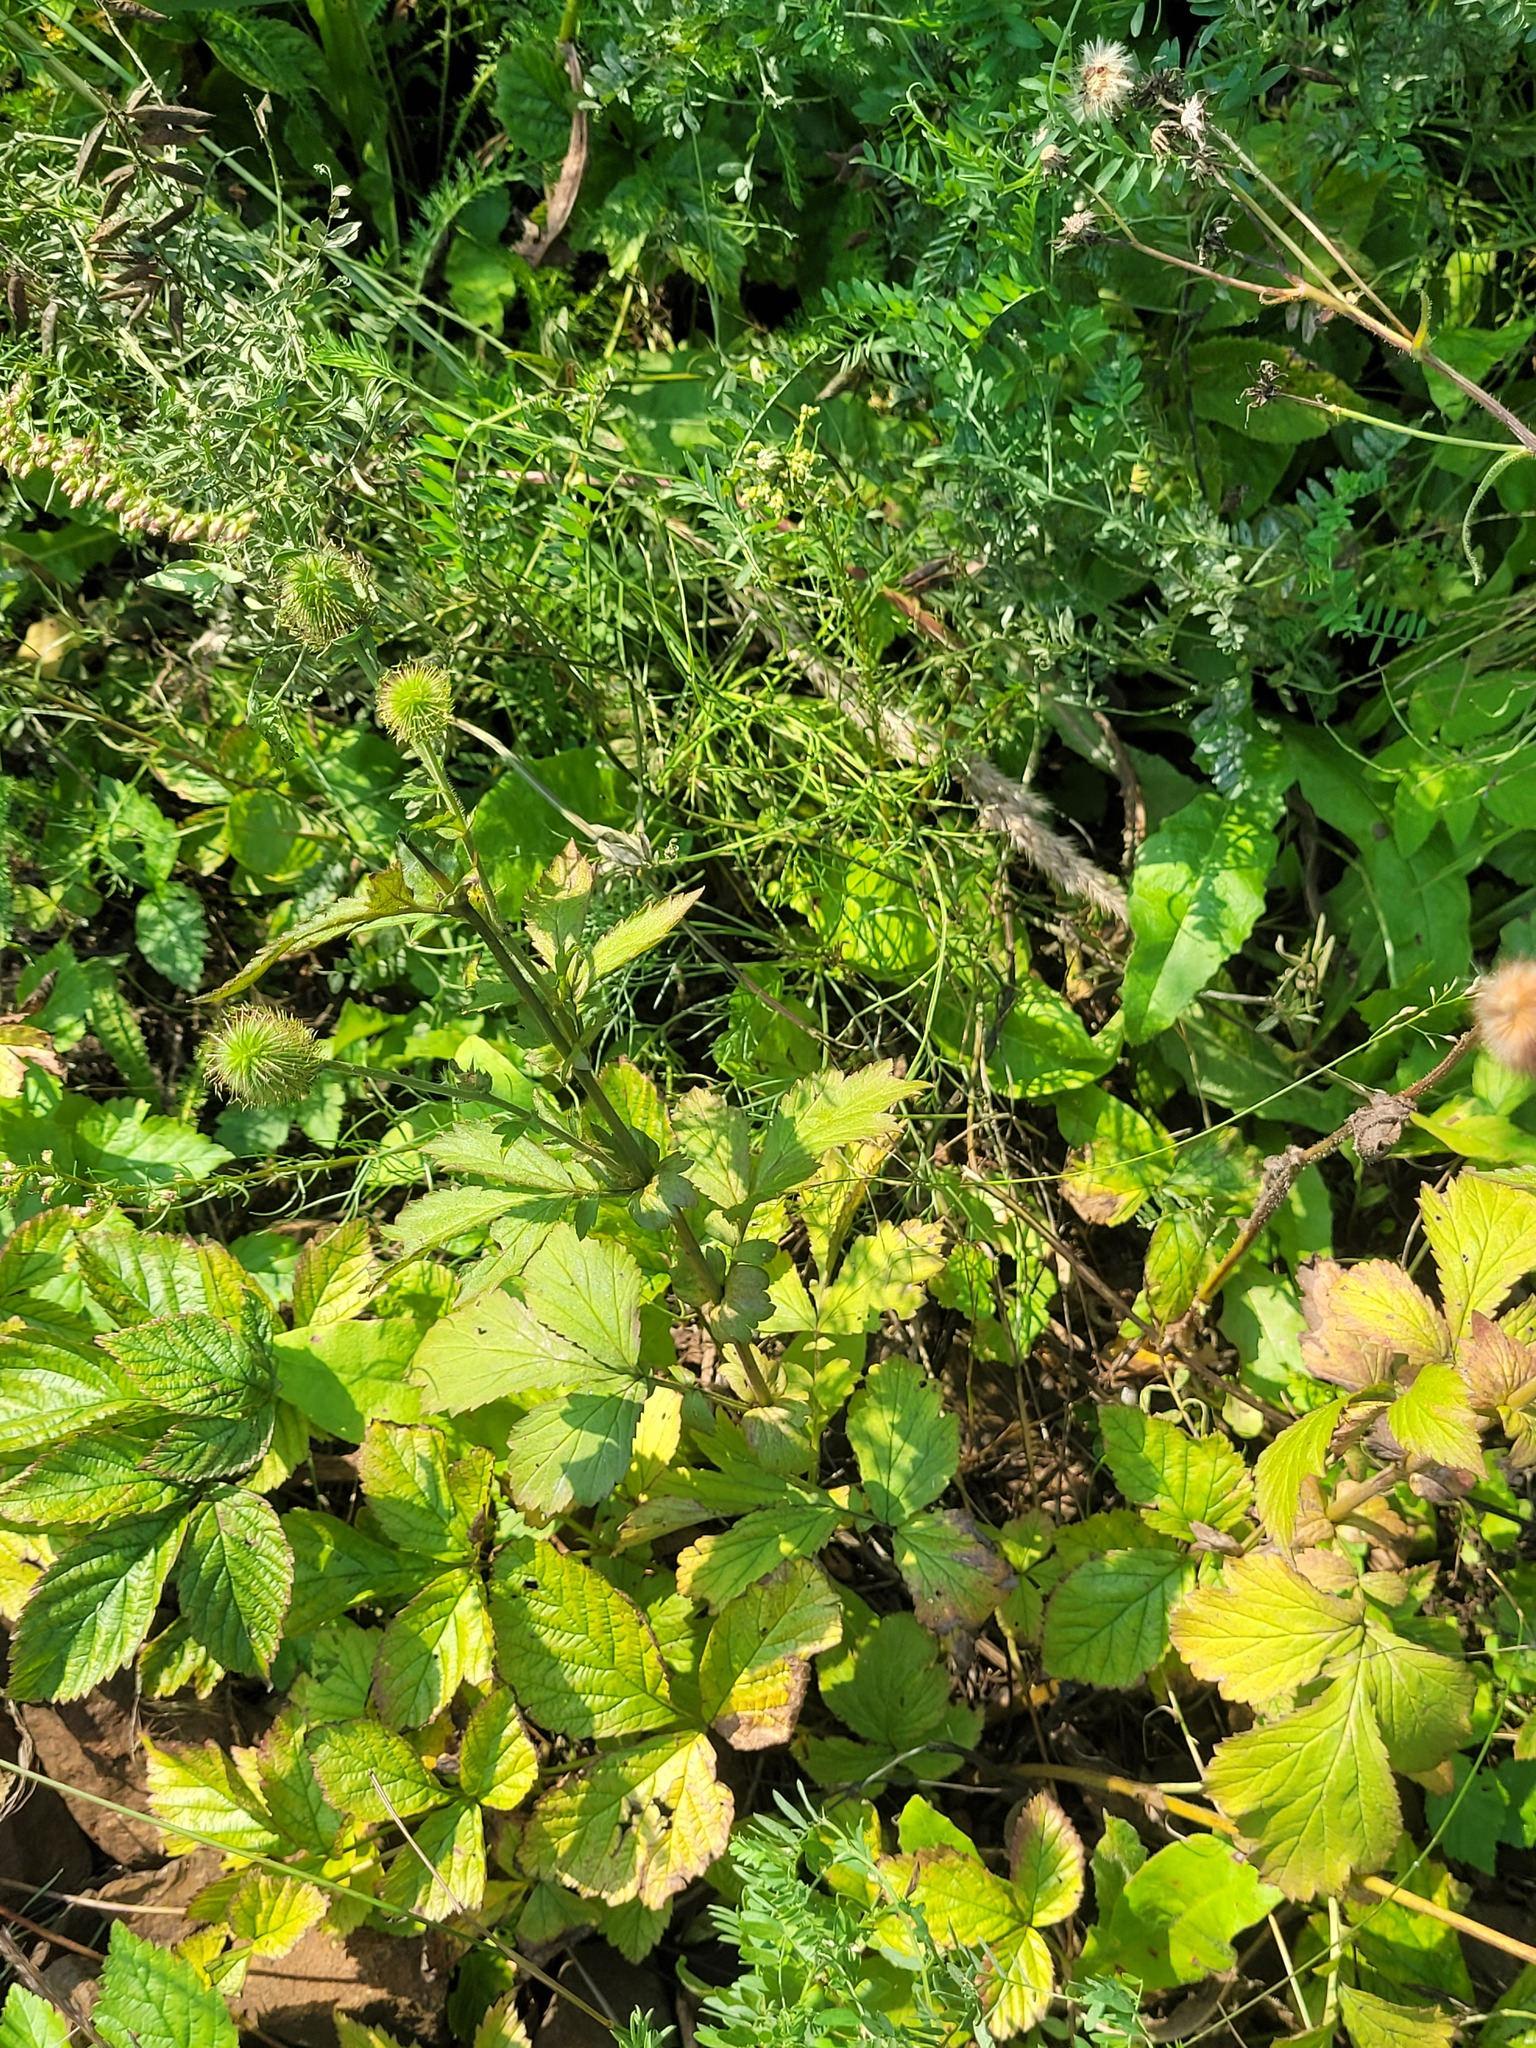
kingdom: Plantae
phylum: Tracheophyta
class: Magnoliopsida
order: Rosales
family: Rosaceae
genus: Geum
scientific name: Geum aleppicum
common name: Yellow avens
